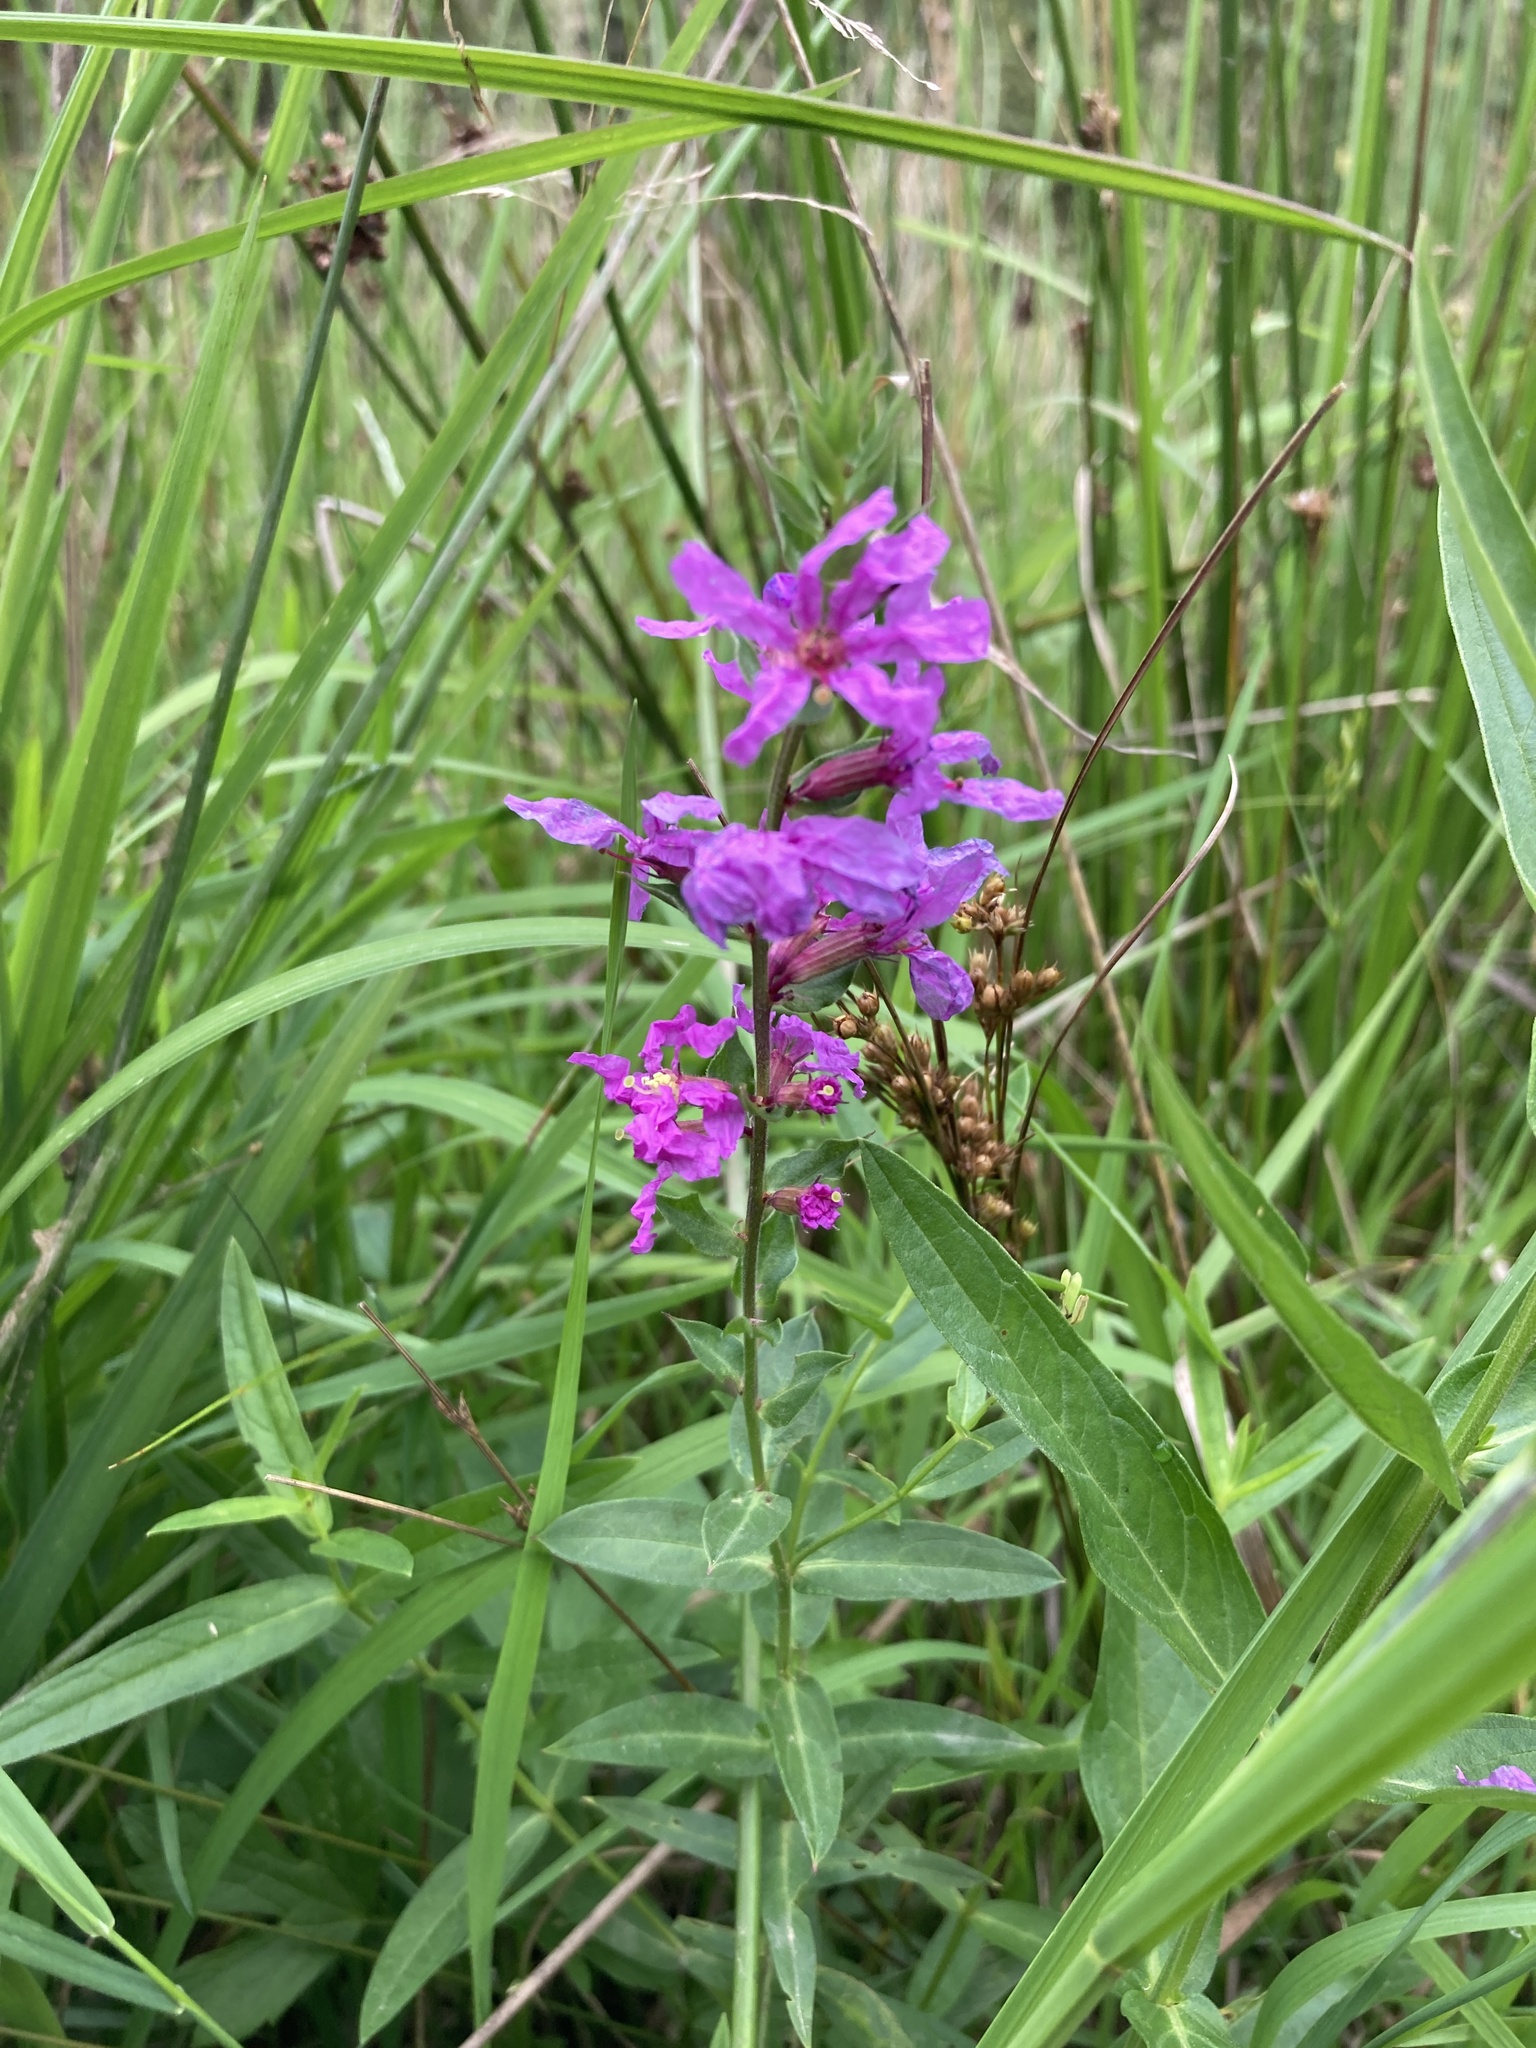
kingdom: Plantae
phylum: Tracheophyta
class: Magnoliopsida
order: Myrtales
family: Lythraceae
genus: Lythrum
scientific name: Lythrum salicaria
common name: Purple loosestrife
